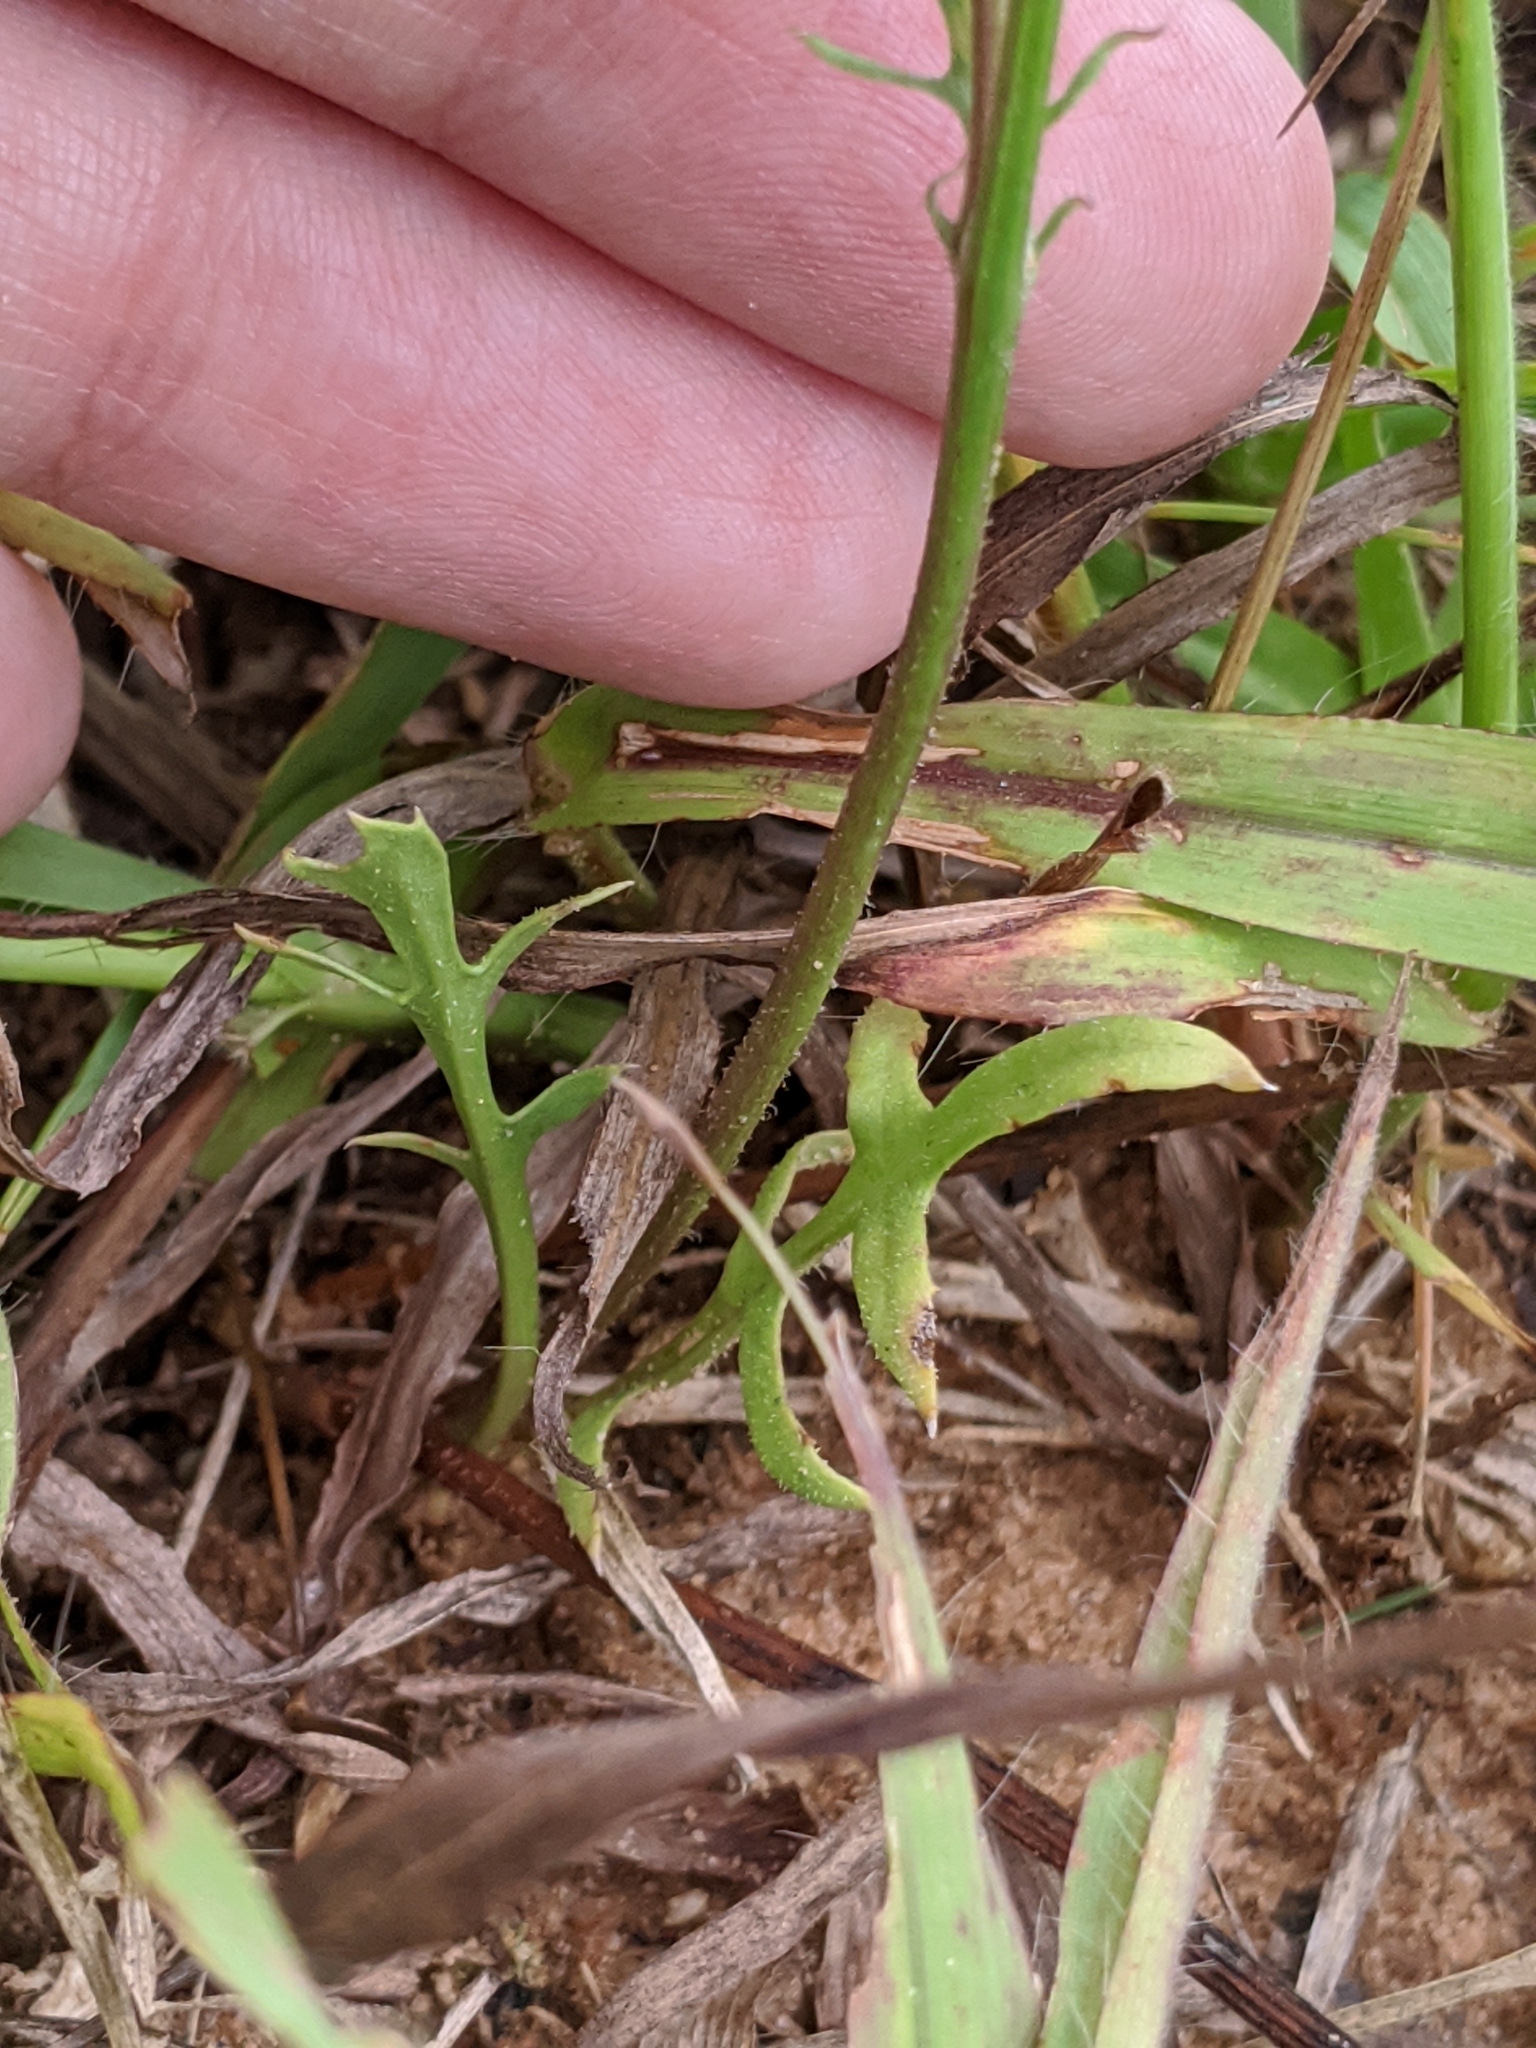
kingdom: Plantae
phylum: Tracheophyta
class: Magnoliopsida
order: Asterales
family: Asteraceae
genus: Pyrrhopappus
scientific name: Pyrrhopappus pauciflorus
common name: Texas false dandelion
